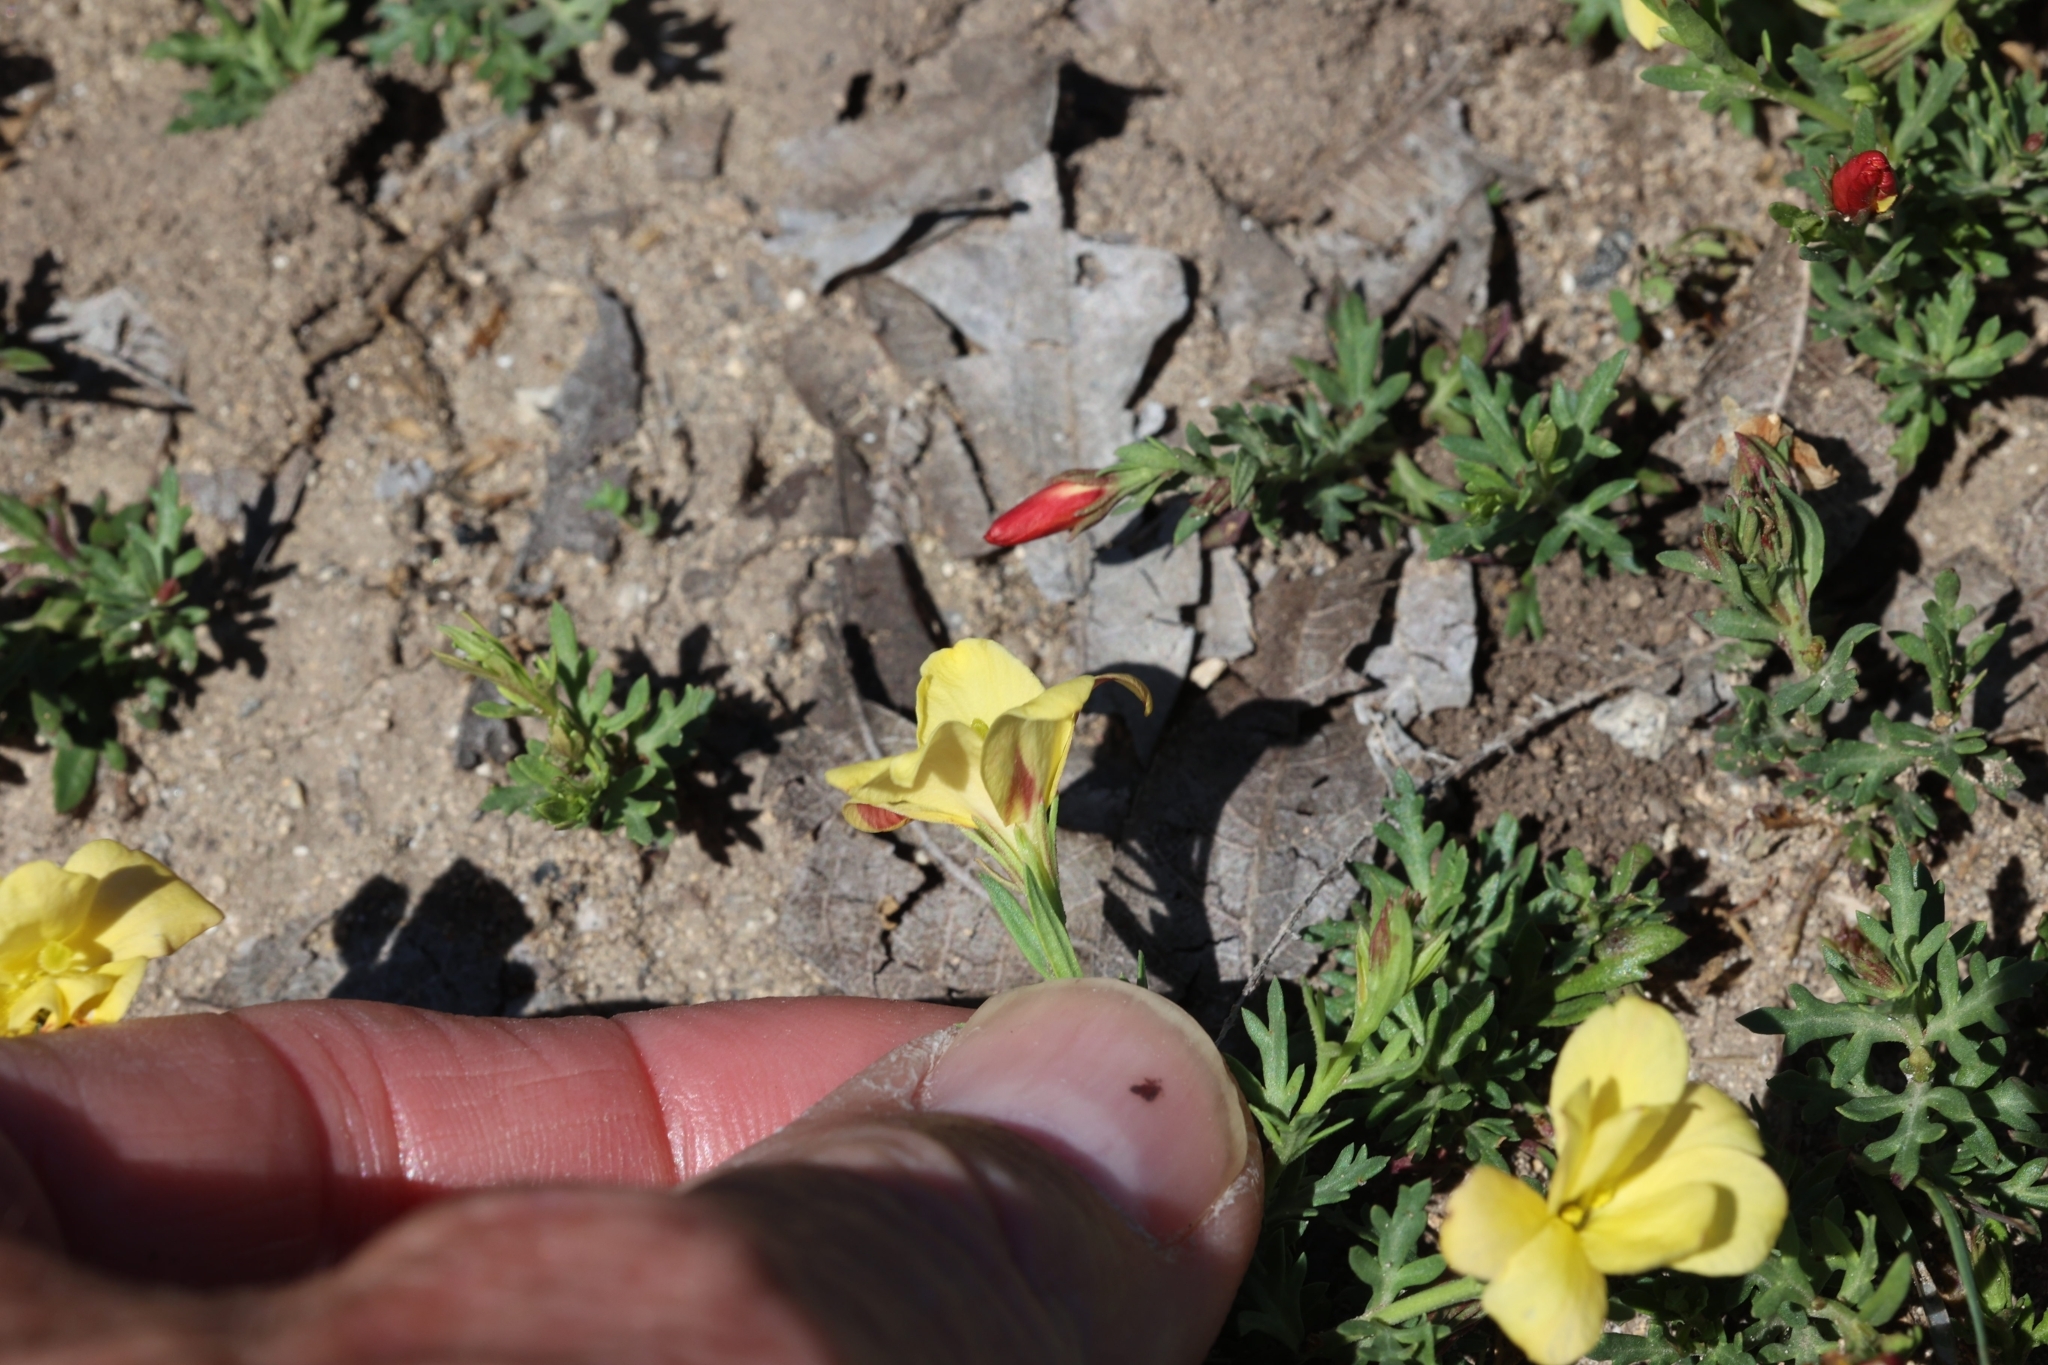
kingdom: Plantae
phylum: Tracheophyta
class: Magnoliopsida
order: Lamiales
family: Oleaceae
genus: Menodora
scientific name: Menodora heterophylla
